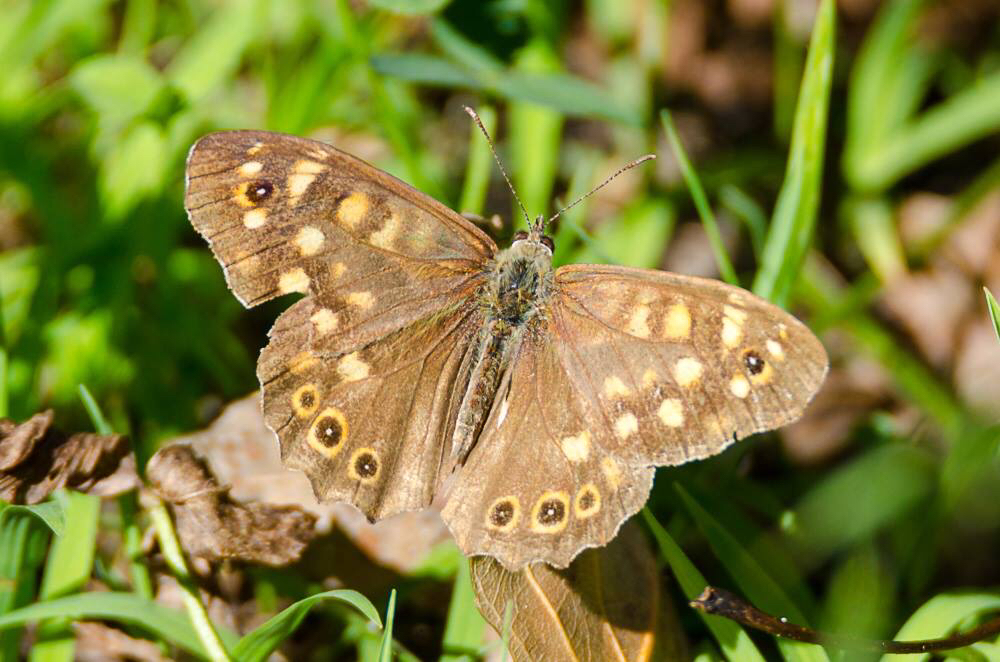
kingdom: Animalia
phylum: Arthropoda
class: Insecta
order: Lepidoptera
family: Nymphalidae
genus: Pararge
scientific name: Pararge aegeria
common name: Speckled wood
